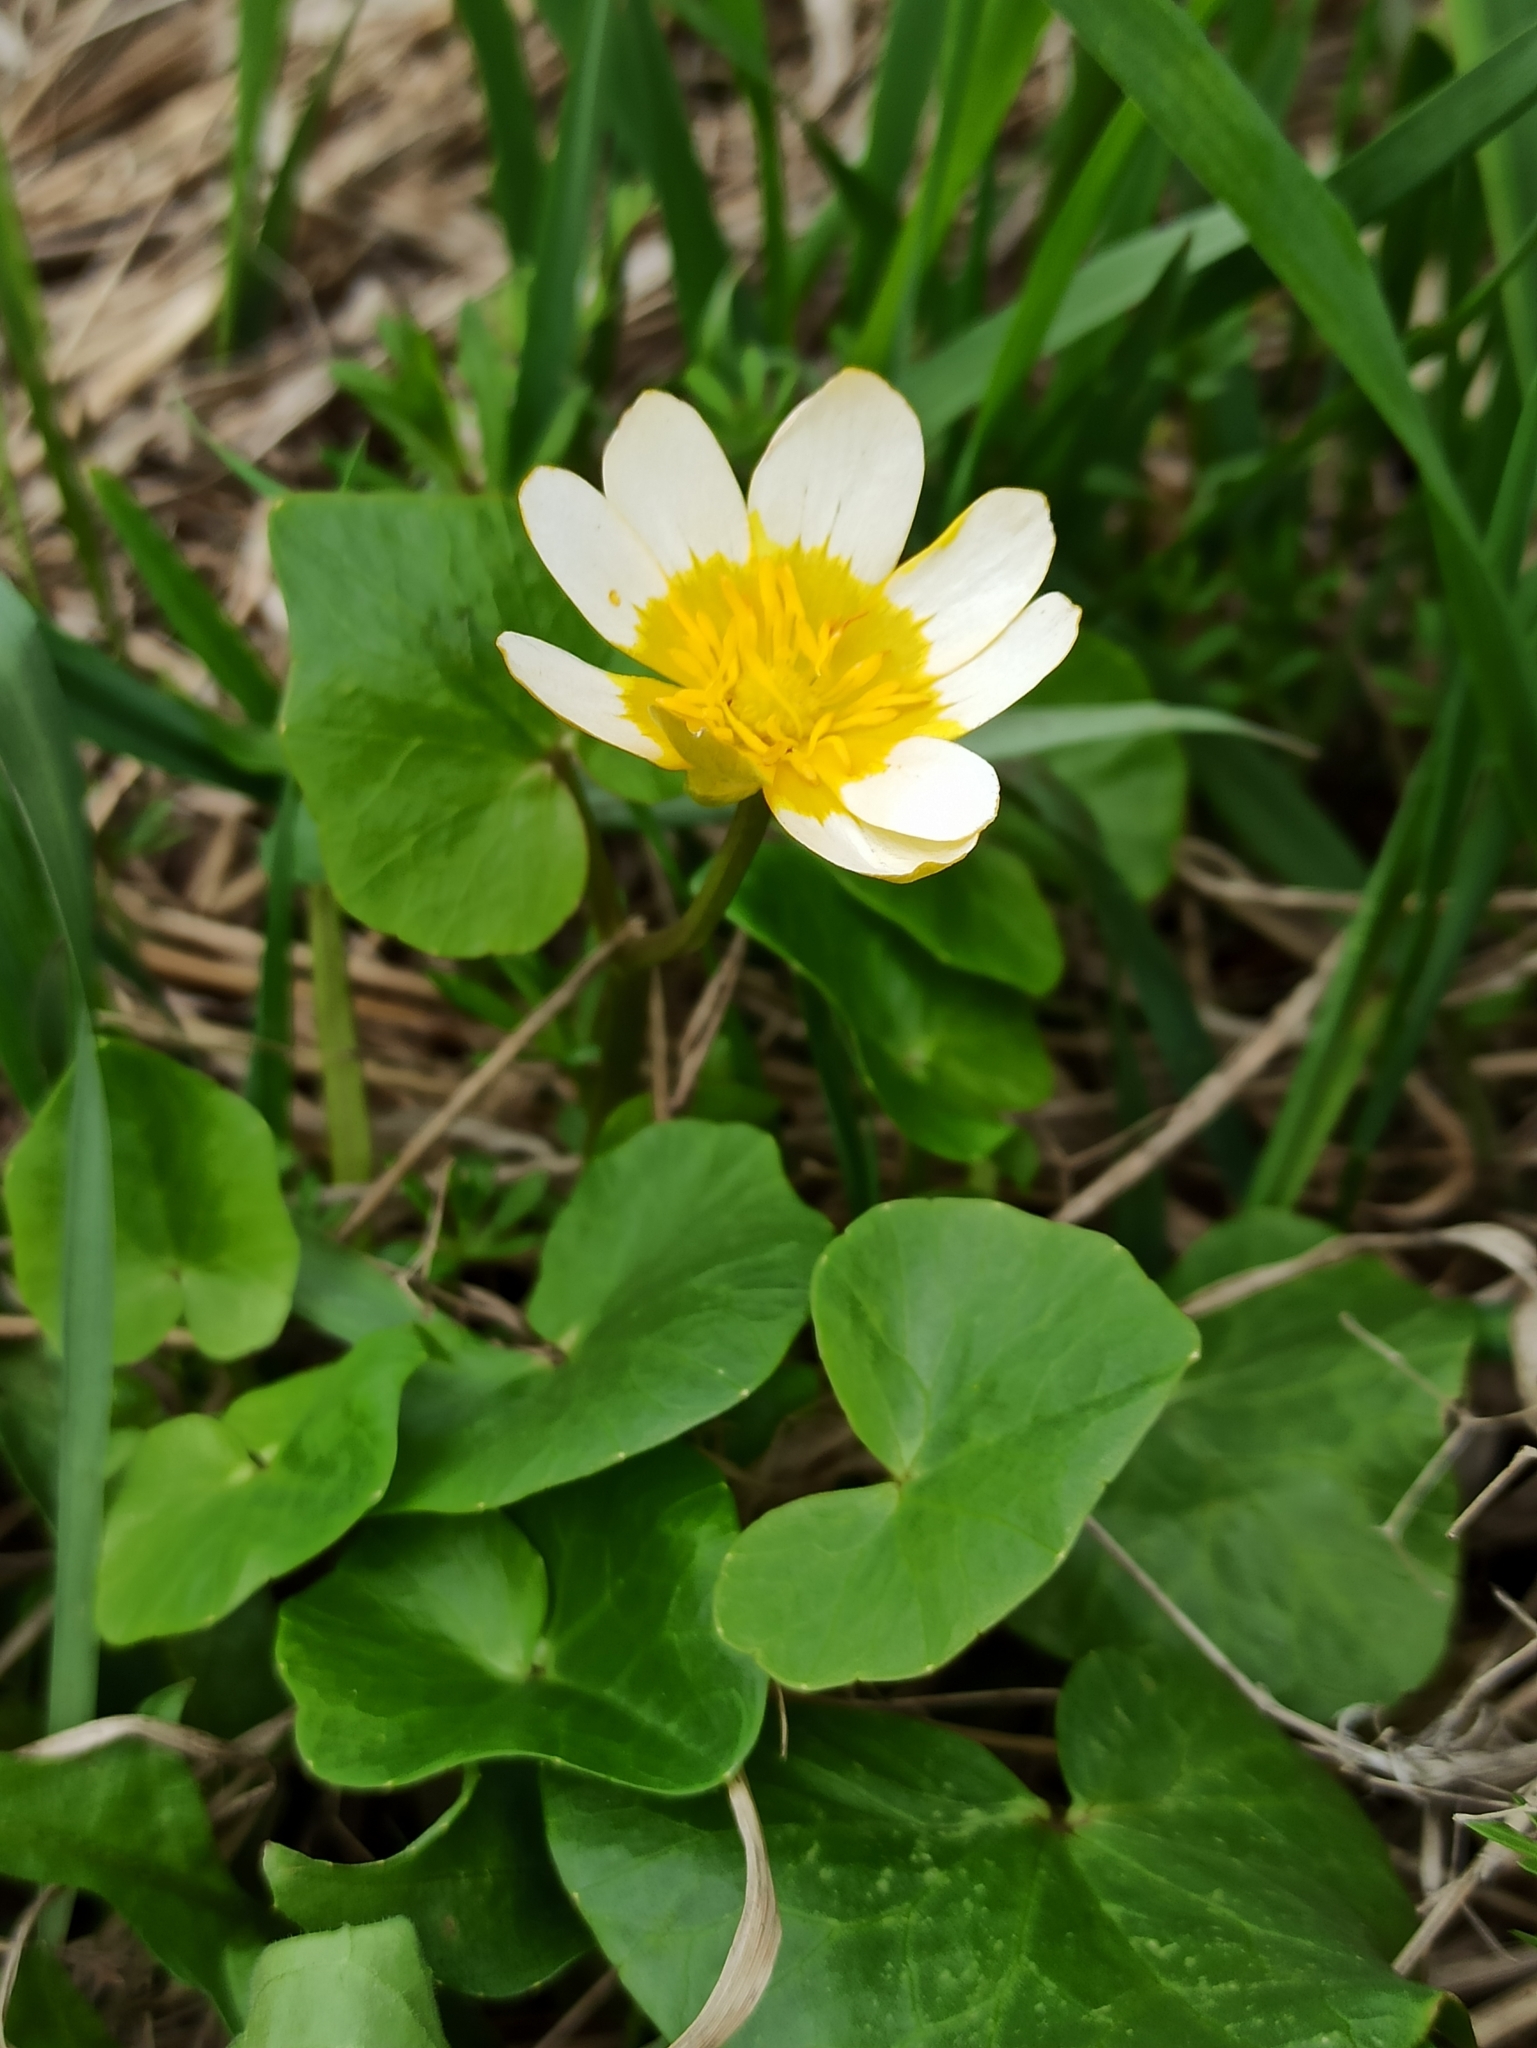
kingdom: Plantae
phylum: Tracheophyta
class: Magnoliopsida
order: Ranunculales
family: Ranunculaceae
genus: Ficaria
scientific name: Ficaria verna
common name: Lesser celandine
